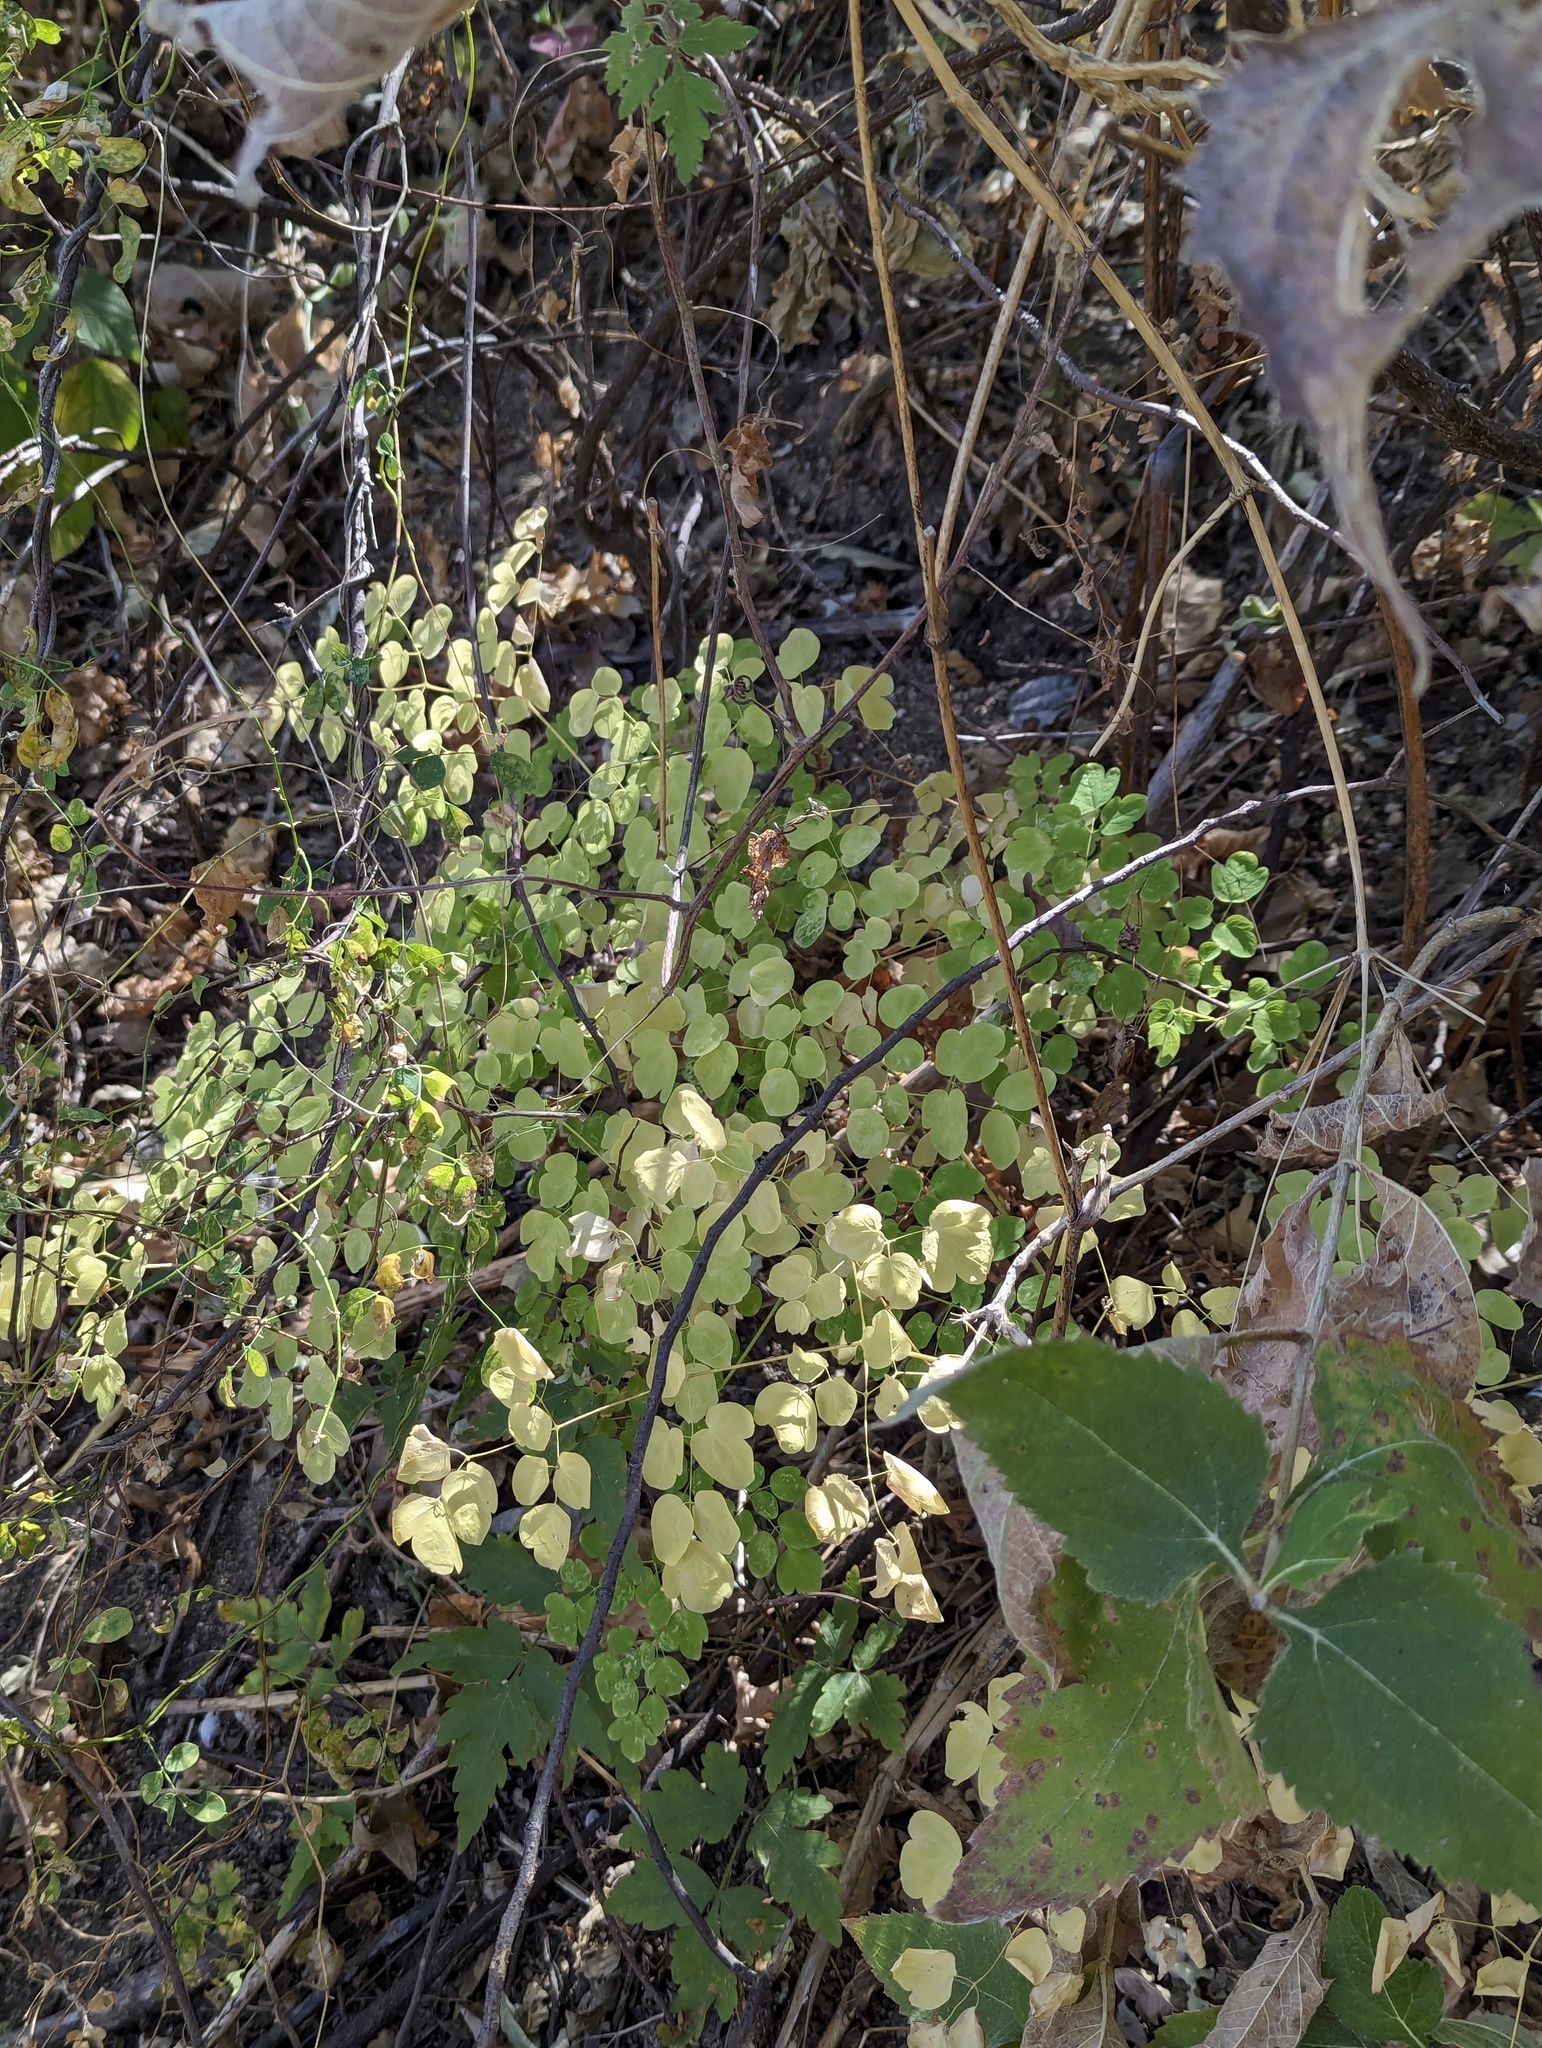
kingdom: Plantae
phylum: Tracheophyta
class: Magnoliopsida
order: Ranunculales
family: Ranunculaceae
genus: Thalictrum
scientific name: Thalictrum peninsulare
